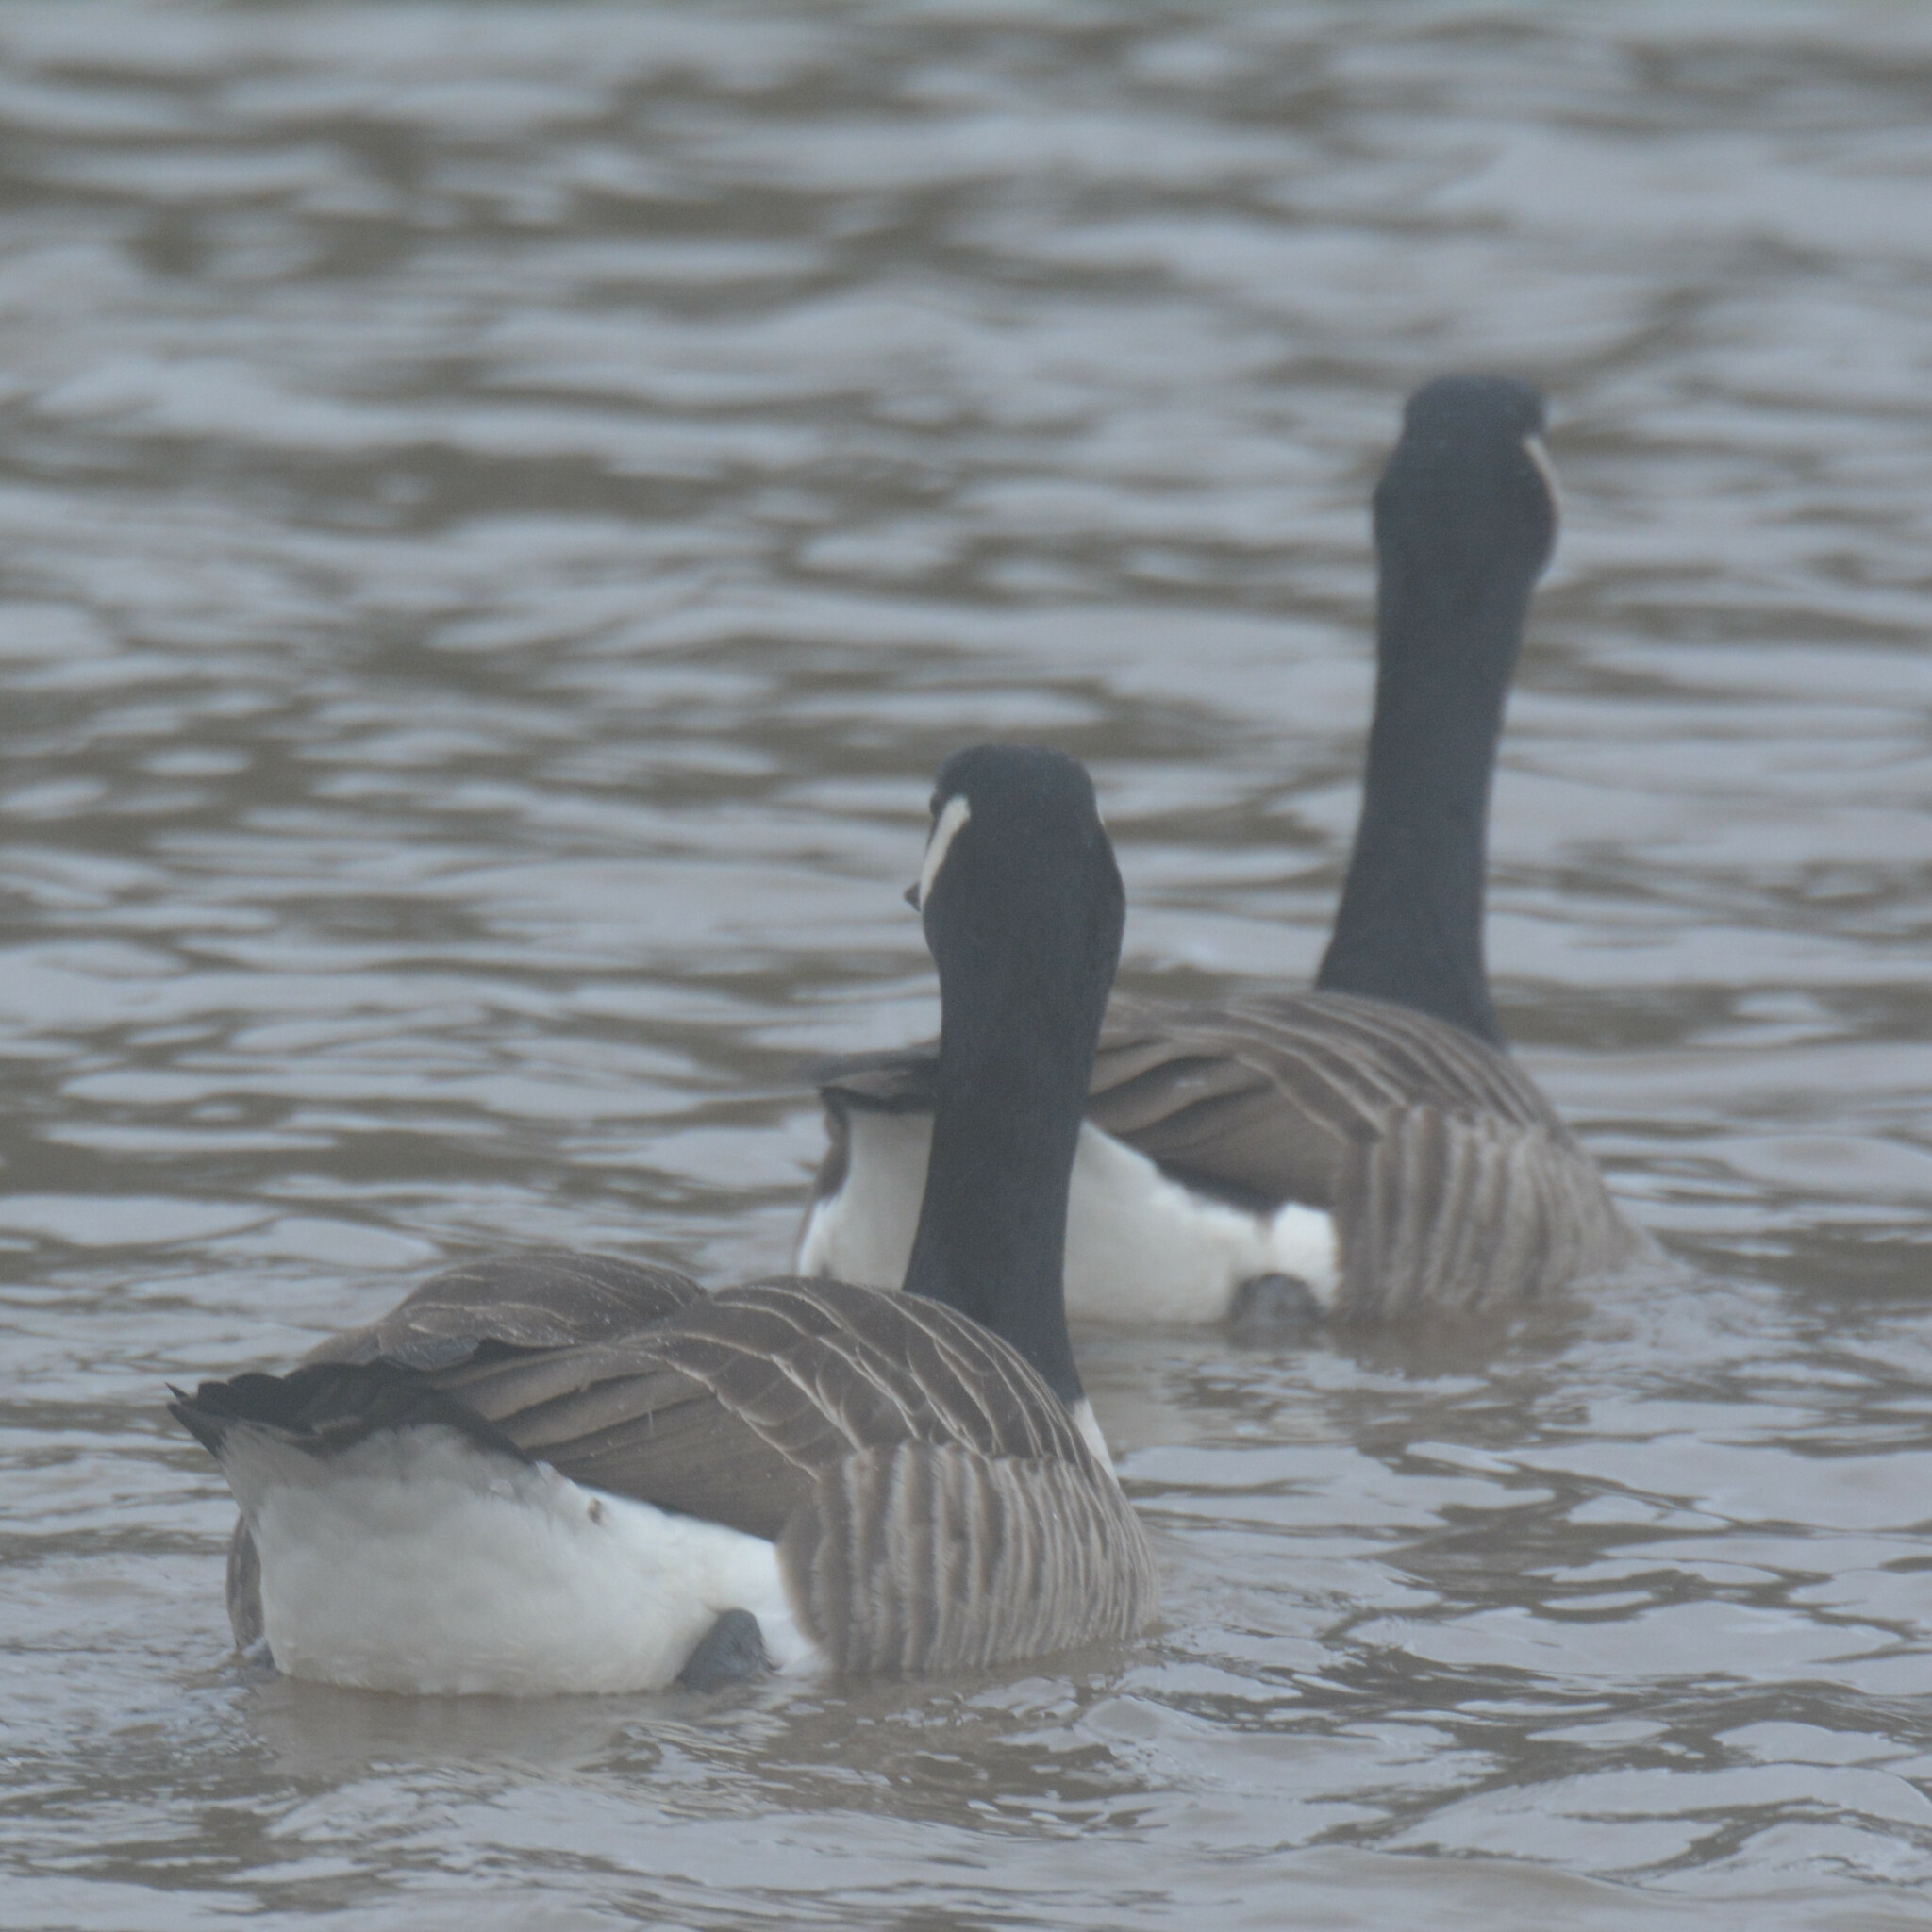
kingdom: Animalia
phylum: Chordata
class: Aves
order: Anseriformes
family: Anatidae
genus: Branta
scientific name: Branta canadensis
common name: Canada goose
